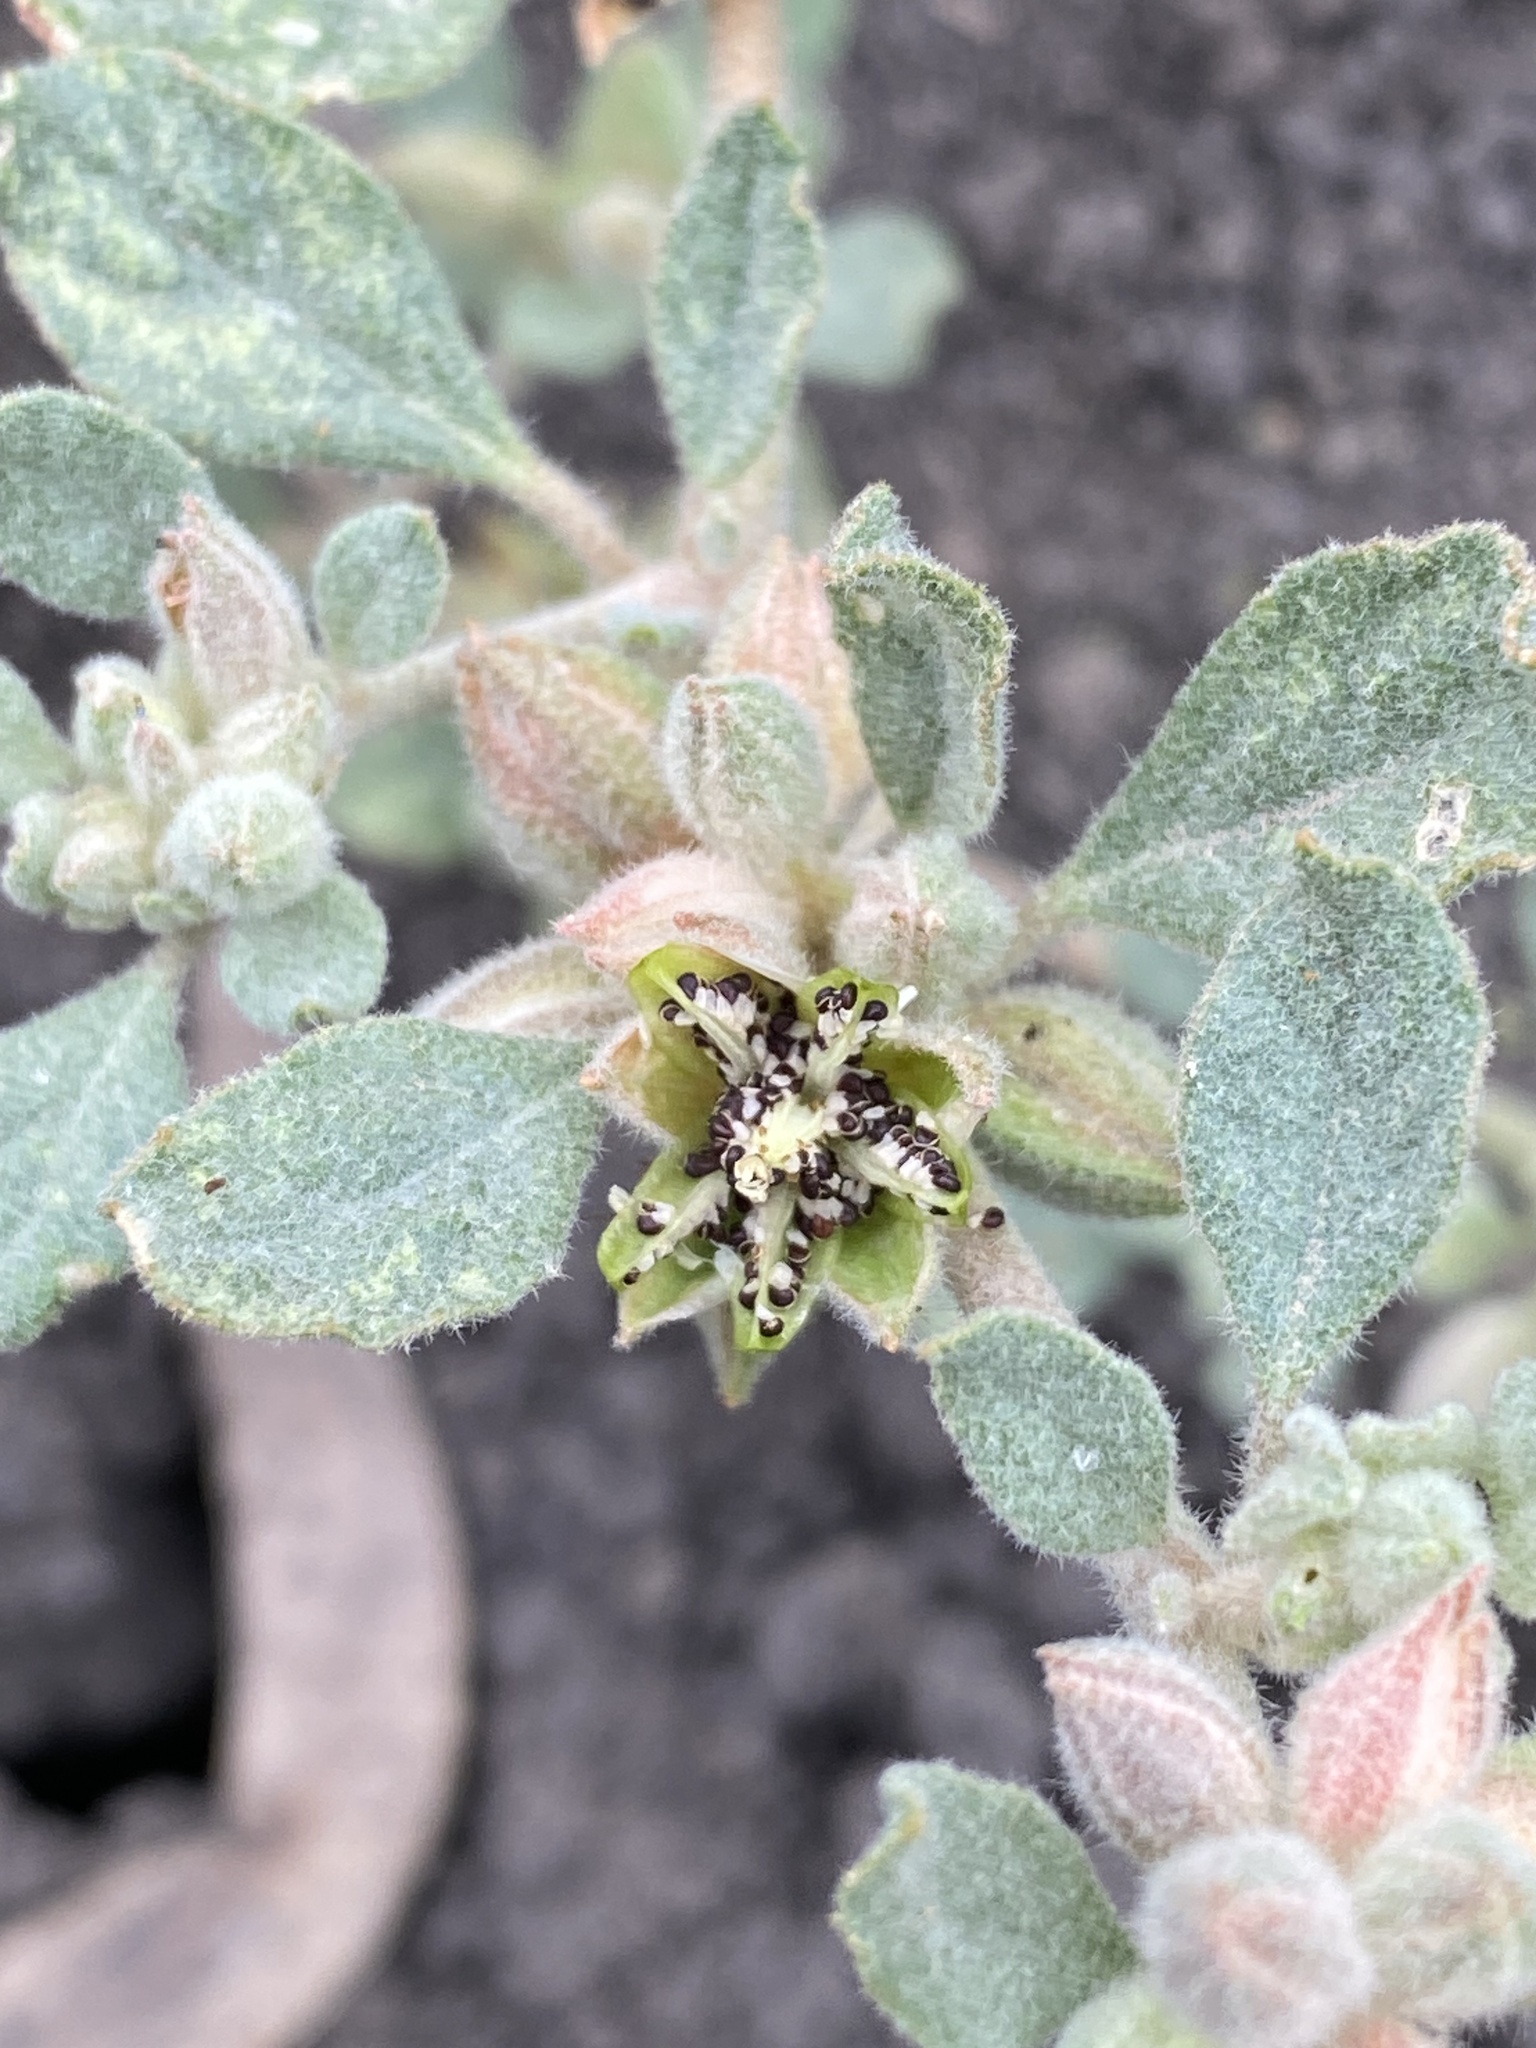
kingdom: Plantae
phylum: Tracheophyta
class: Magnoliopsida
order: Caryophyllales
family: Molluginaceae
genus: Glinus
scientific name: Glinus lotoides
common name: Lotus sweetjuice
